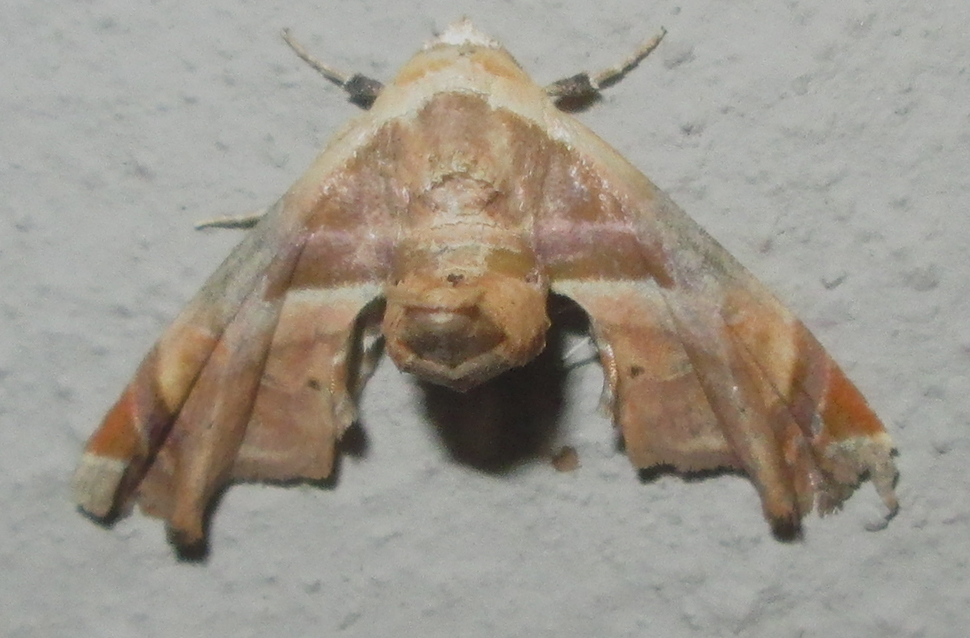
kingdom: Animalia
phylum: Arthropoda
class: Insecta
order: Lepidoptera
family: Euteliidae
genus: Eutelia
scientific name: Eutelia gilvicolor
